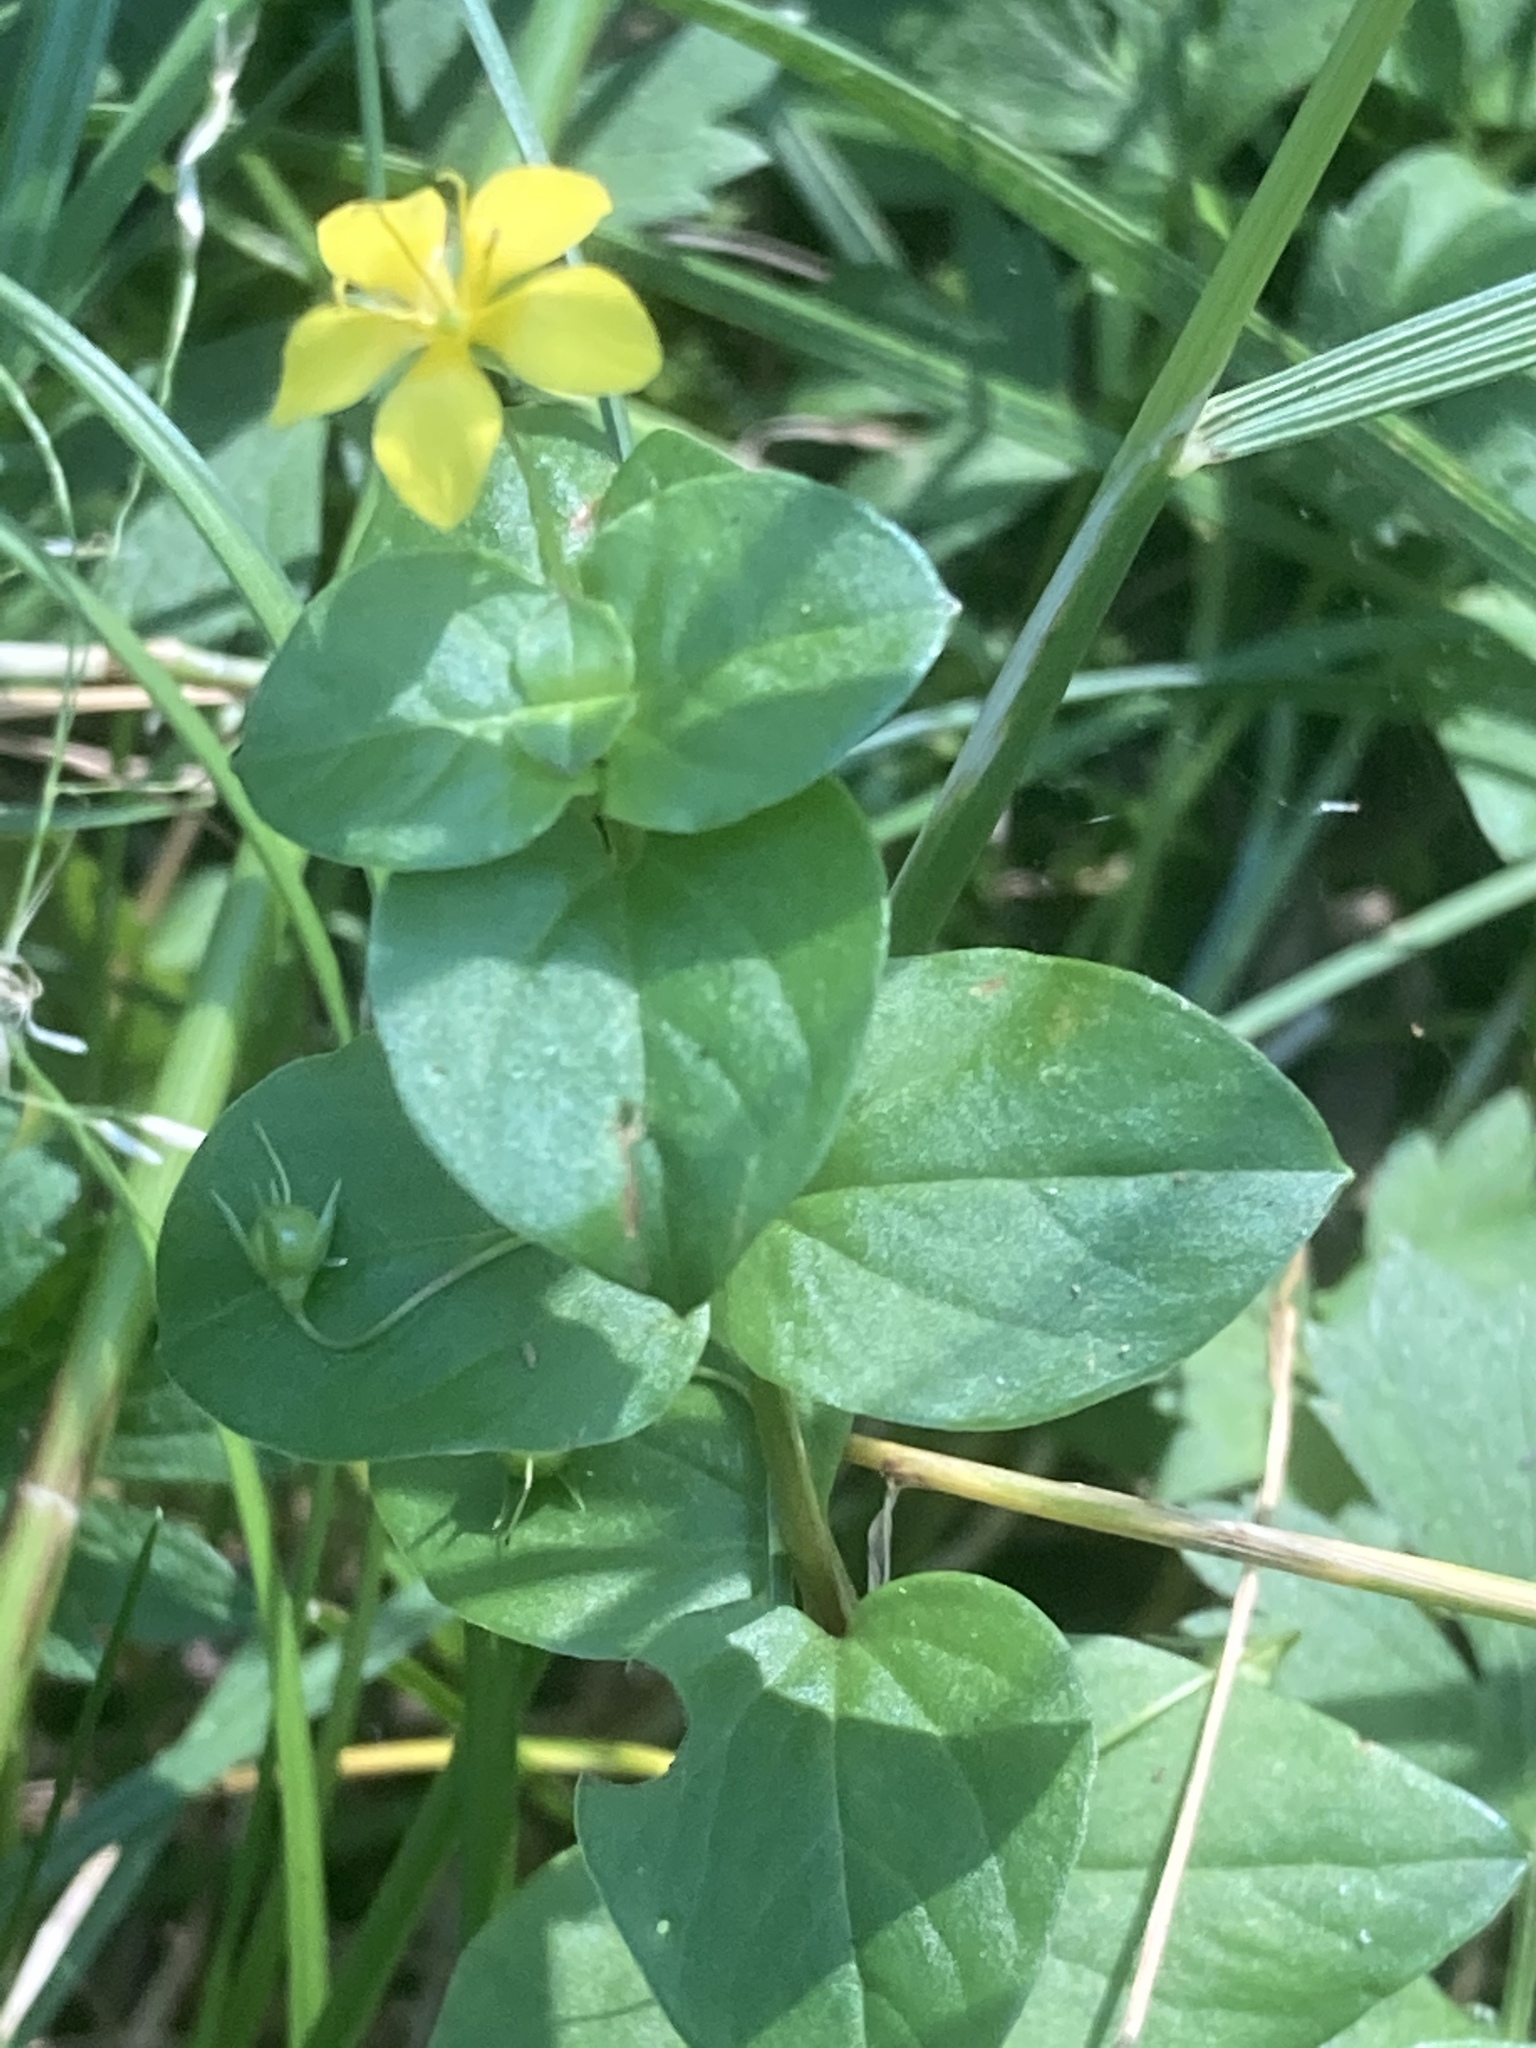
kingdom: Plantae
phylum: Tracheophyta
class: Magnoliopsida
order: Ericales
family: Primulaceae
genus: Lysimachia
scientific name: Lysimachia nemorum
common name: Yellow pimpernel
